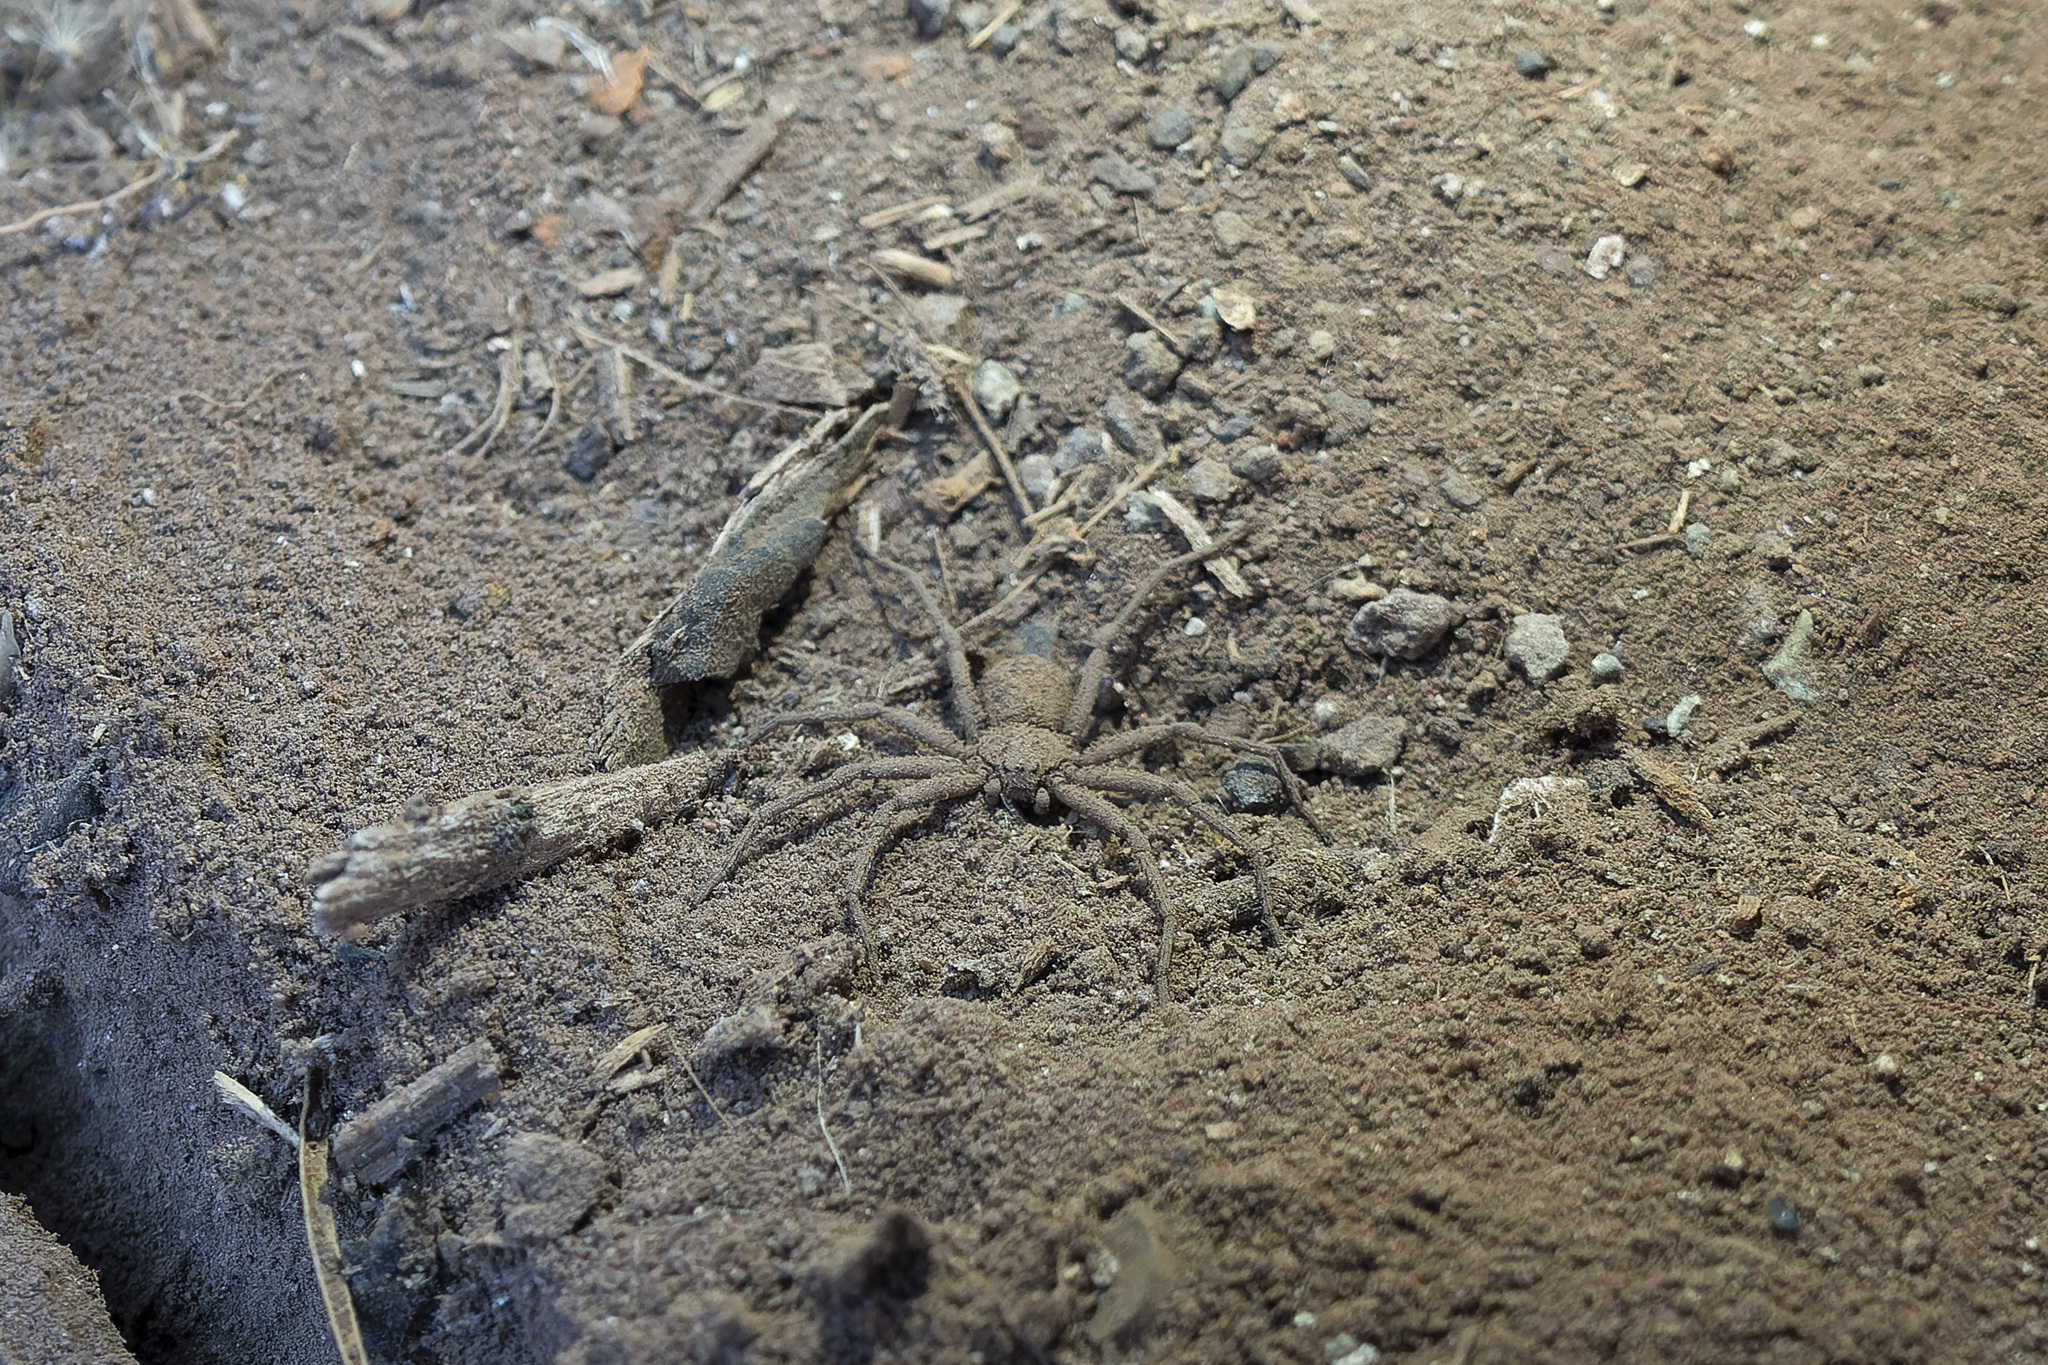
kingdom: Animalia
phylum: Arthropoda
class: Arachnida
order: Araneae
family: Sicariidae
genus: Sicarius
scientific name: Sicarius levii
